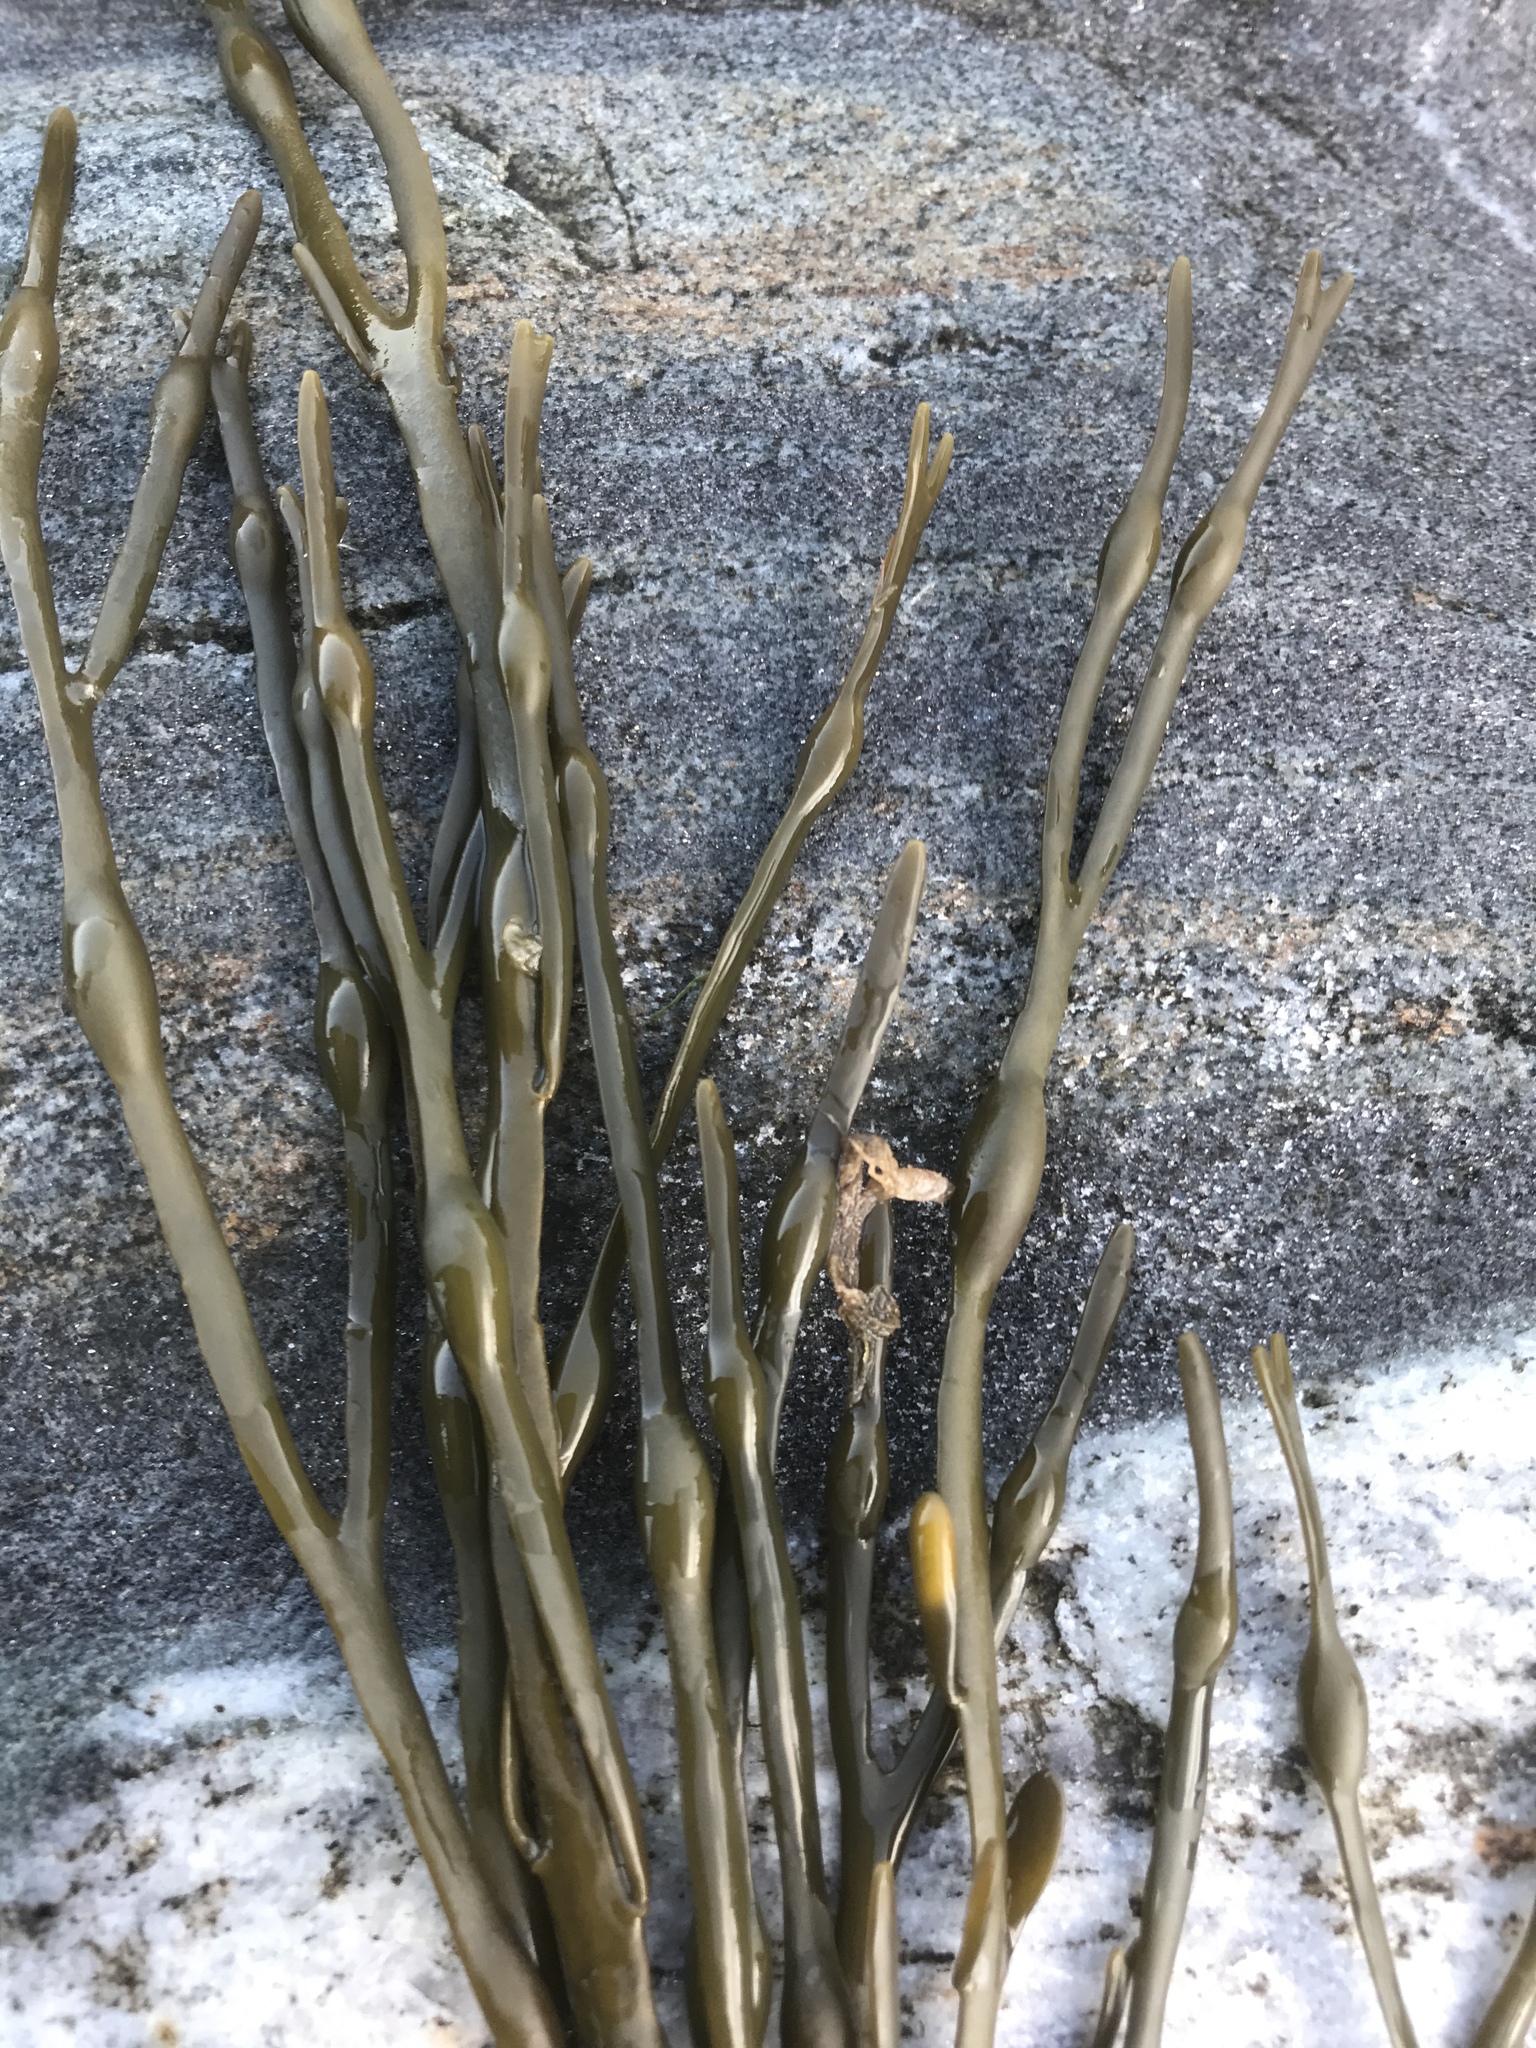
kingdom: Chromista
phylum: Ochrophyta
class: Phaeophyceae
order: Fucales
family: Fucaceae
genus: Ascophyllum
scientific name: Ascophyllum nodosum
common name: Knotted wrack
